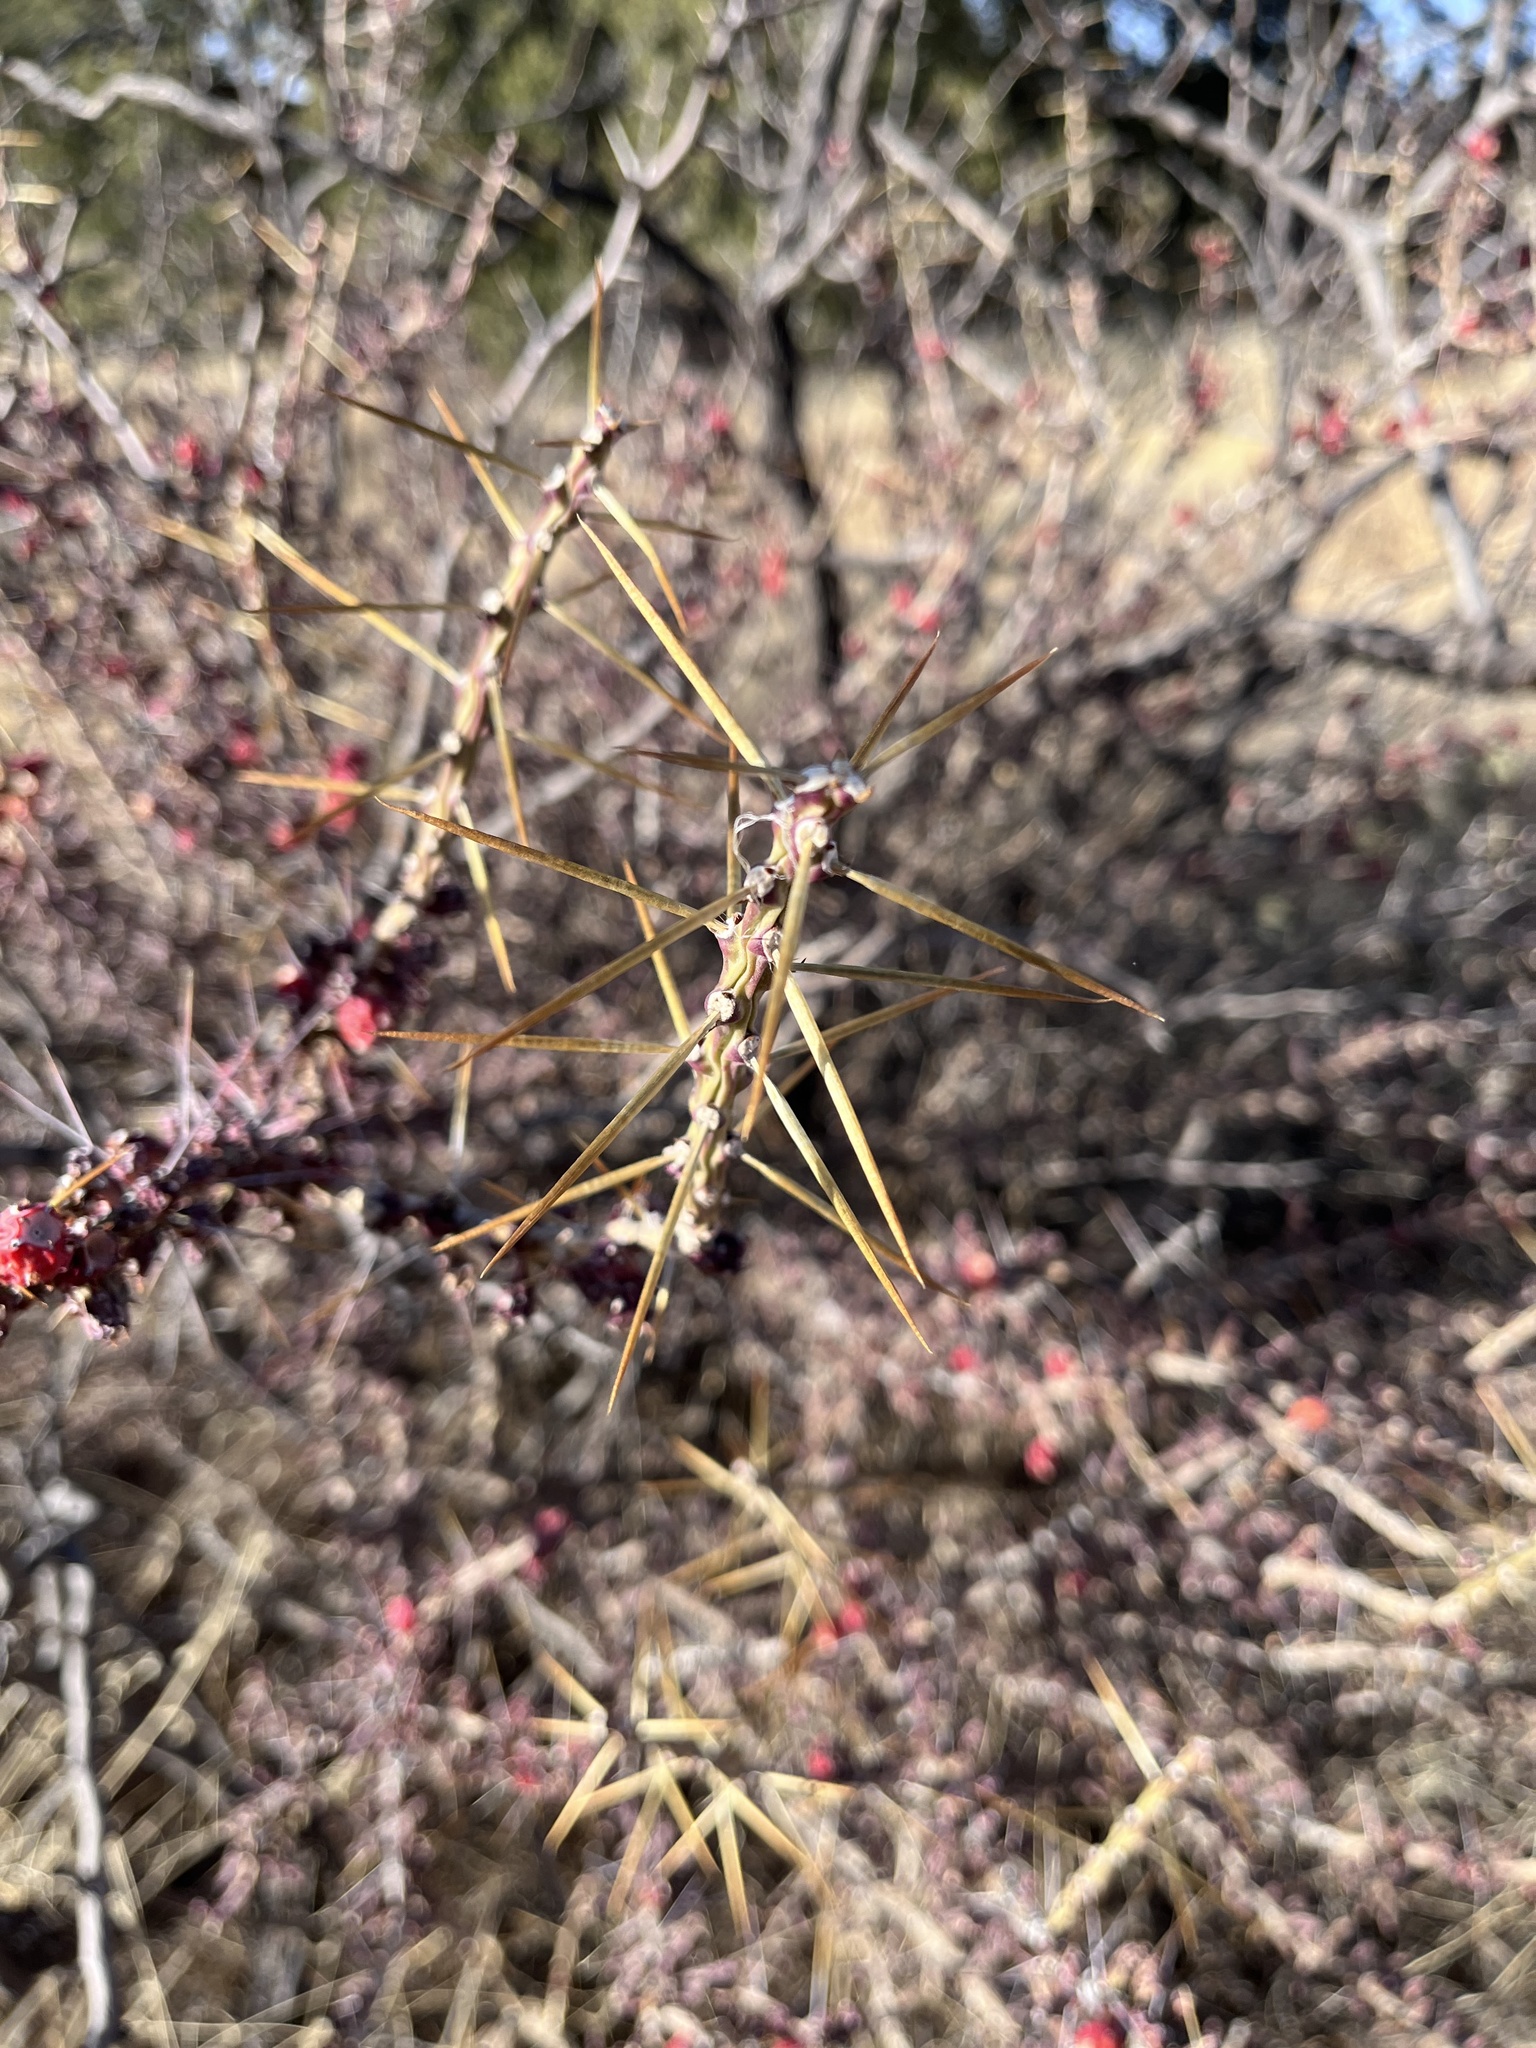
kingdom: Plantae
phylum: Tracheophyta
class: Magnoliopsida
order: Caryophyllales
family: Cactaceae
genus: Cylindropuntia
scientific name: Cylindropuntia leptocaulis
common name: Christmas cactus
